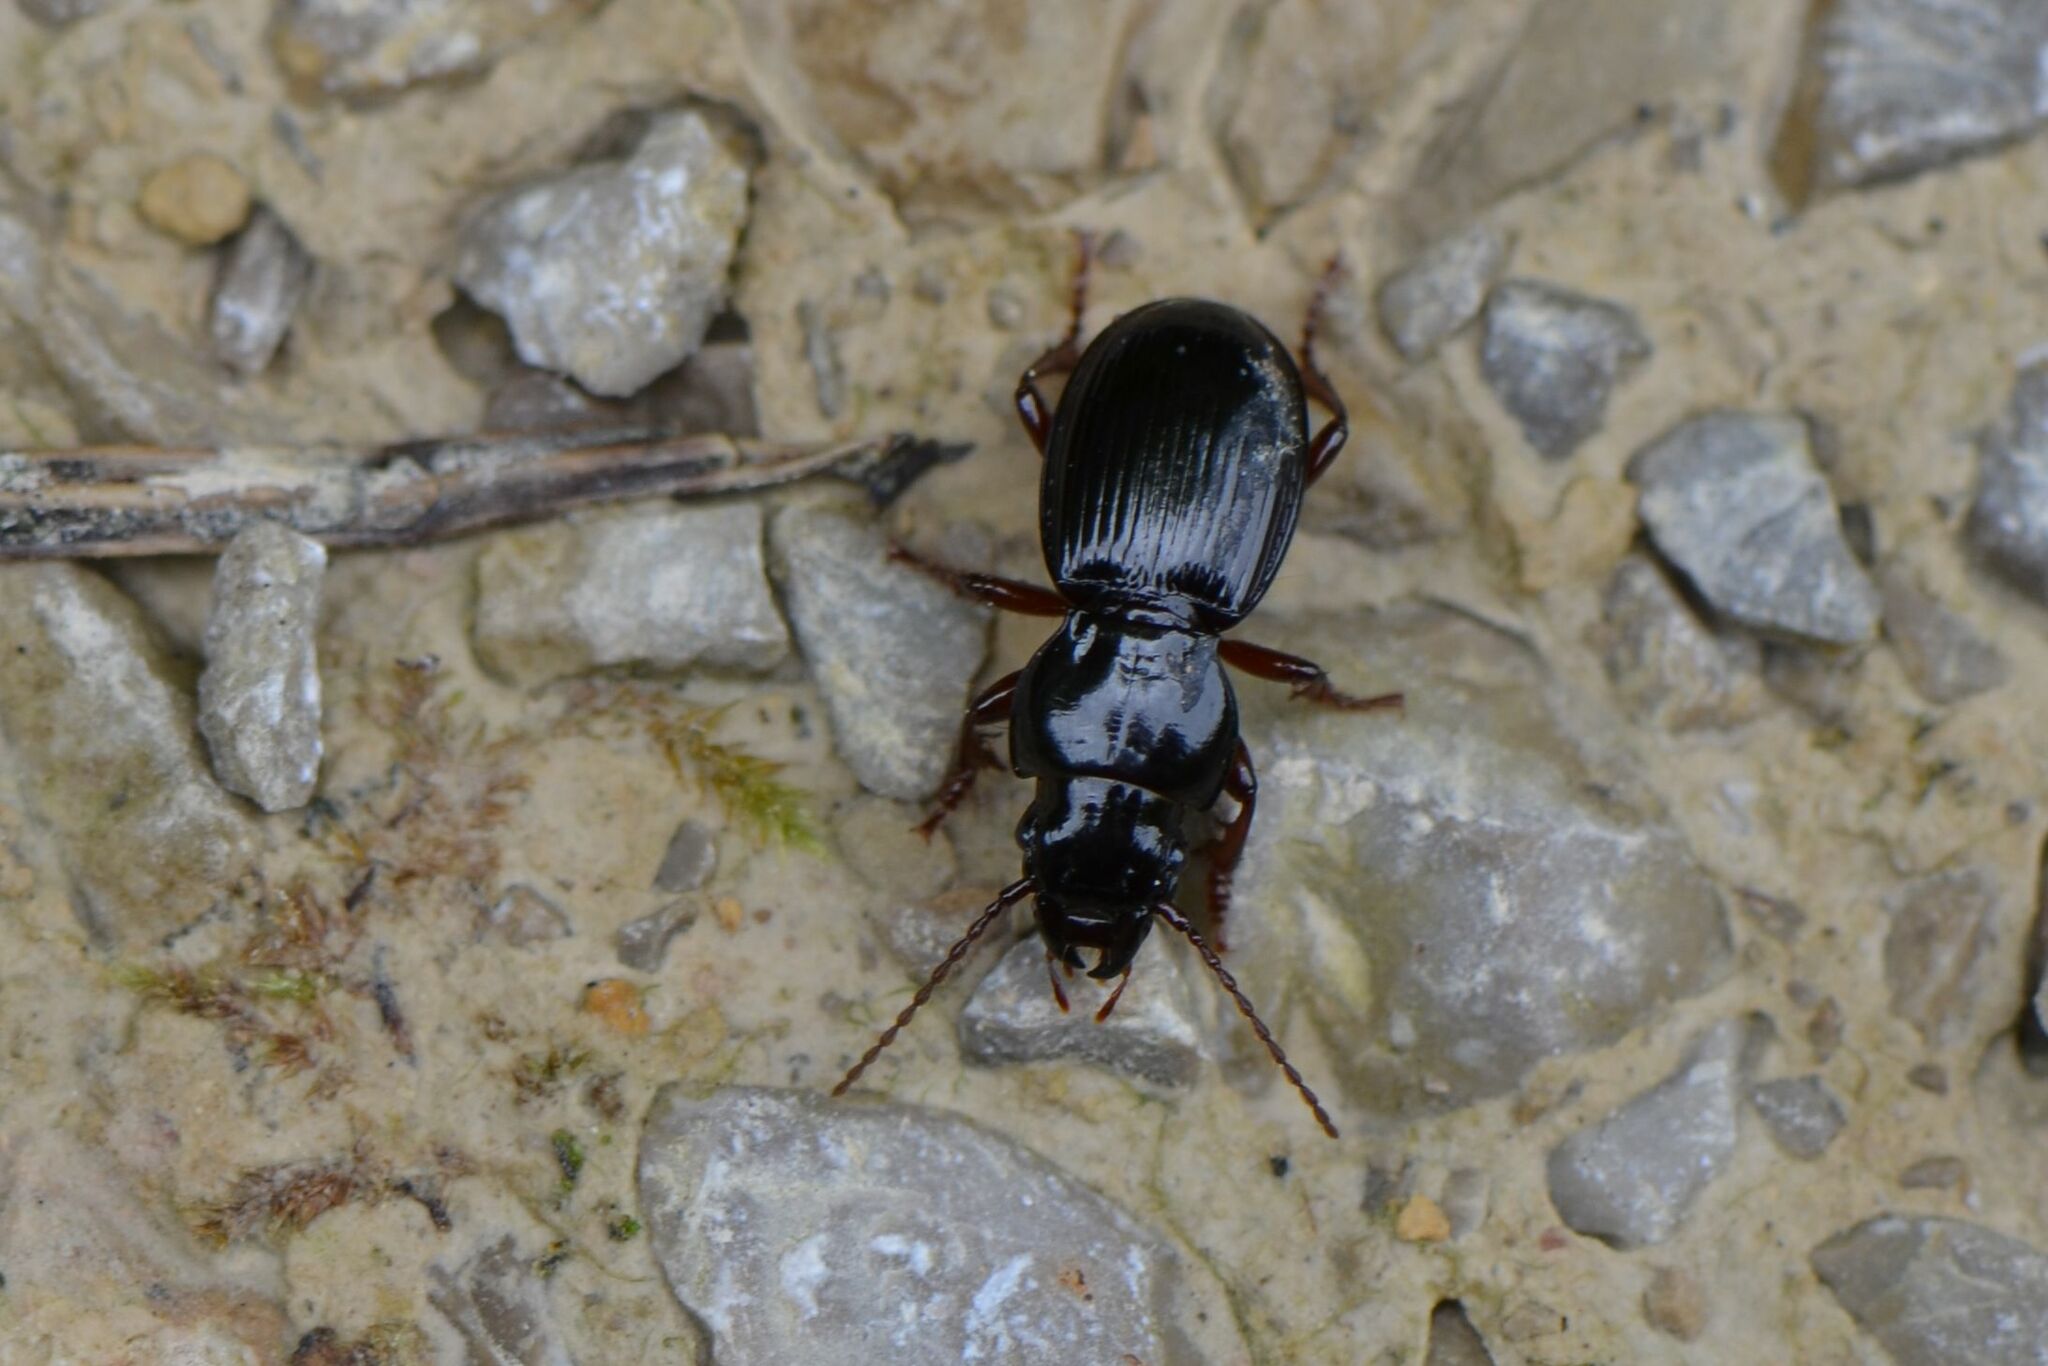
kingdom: Animalia
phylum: Arthropoda
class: Insecta
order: Coleoptera
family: Carabidae
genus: Molops
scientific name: Molops piceus
